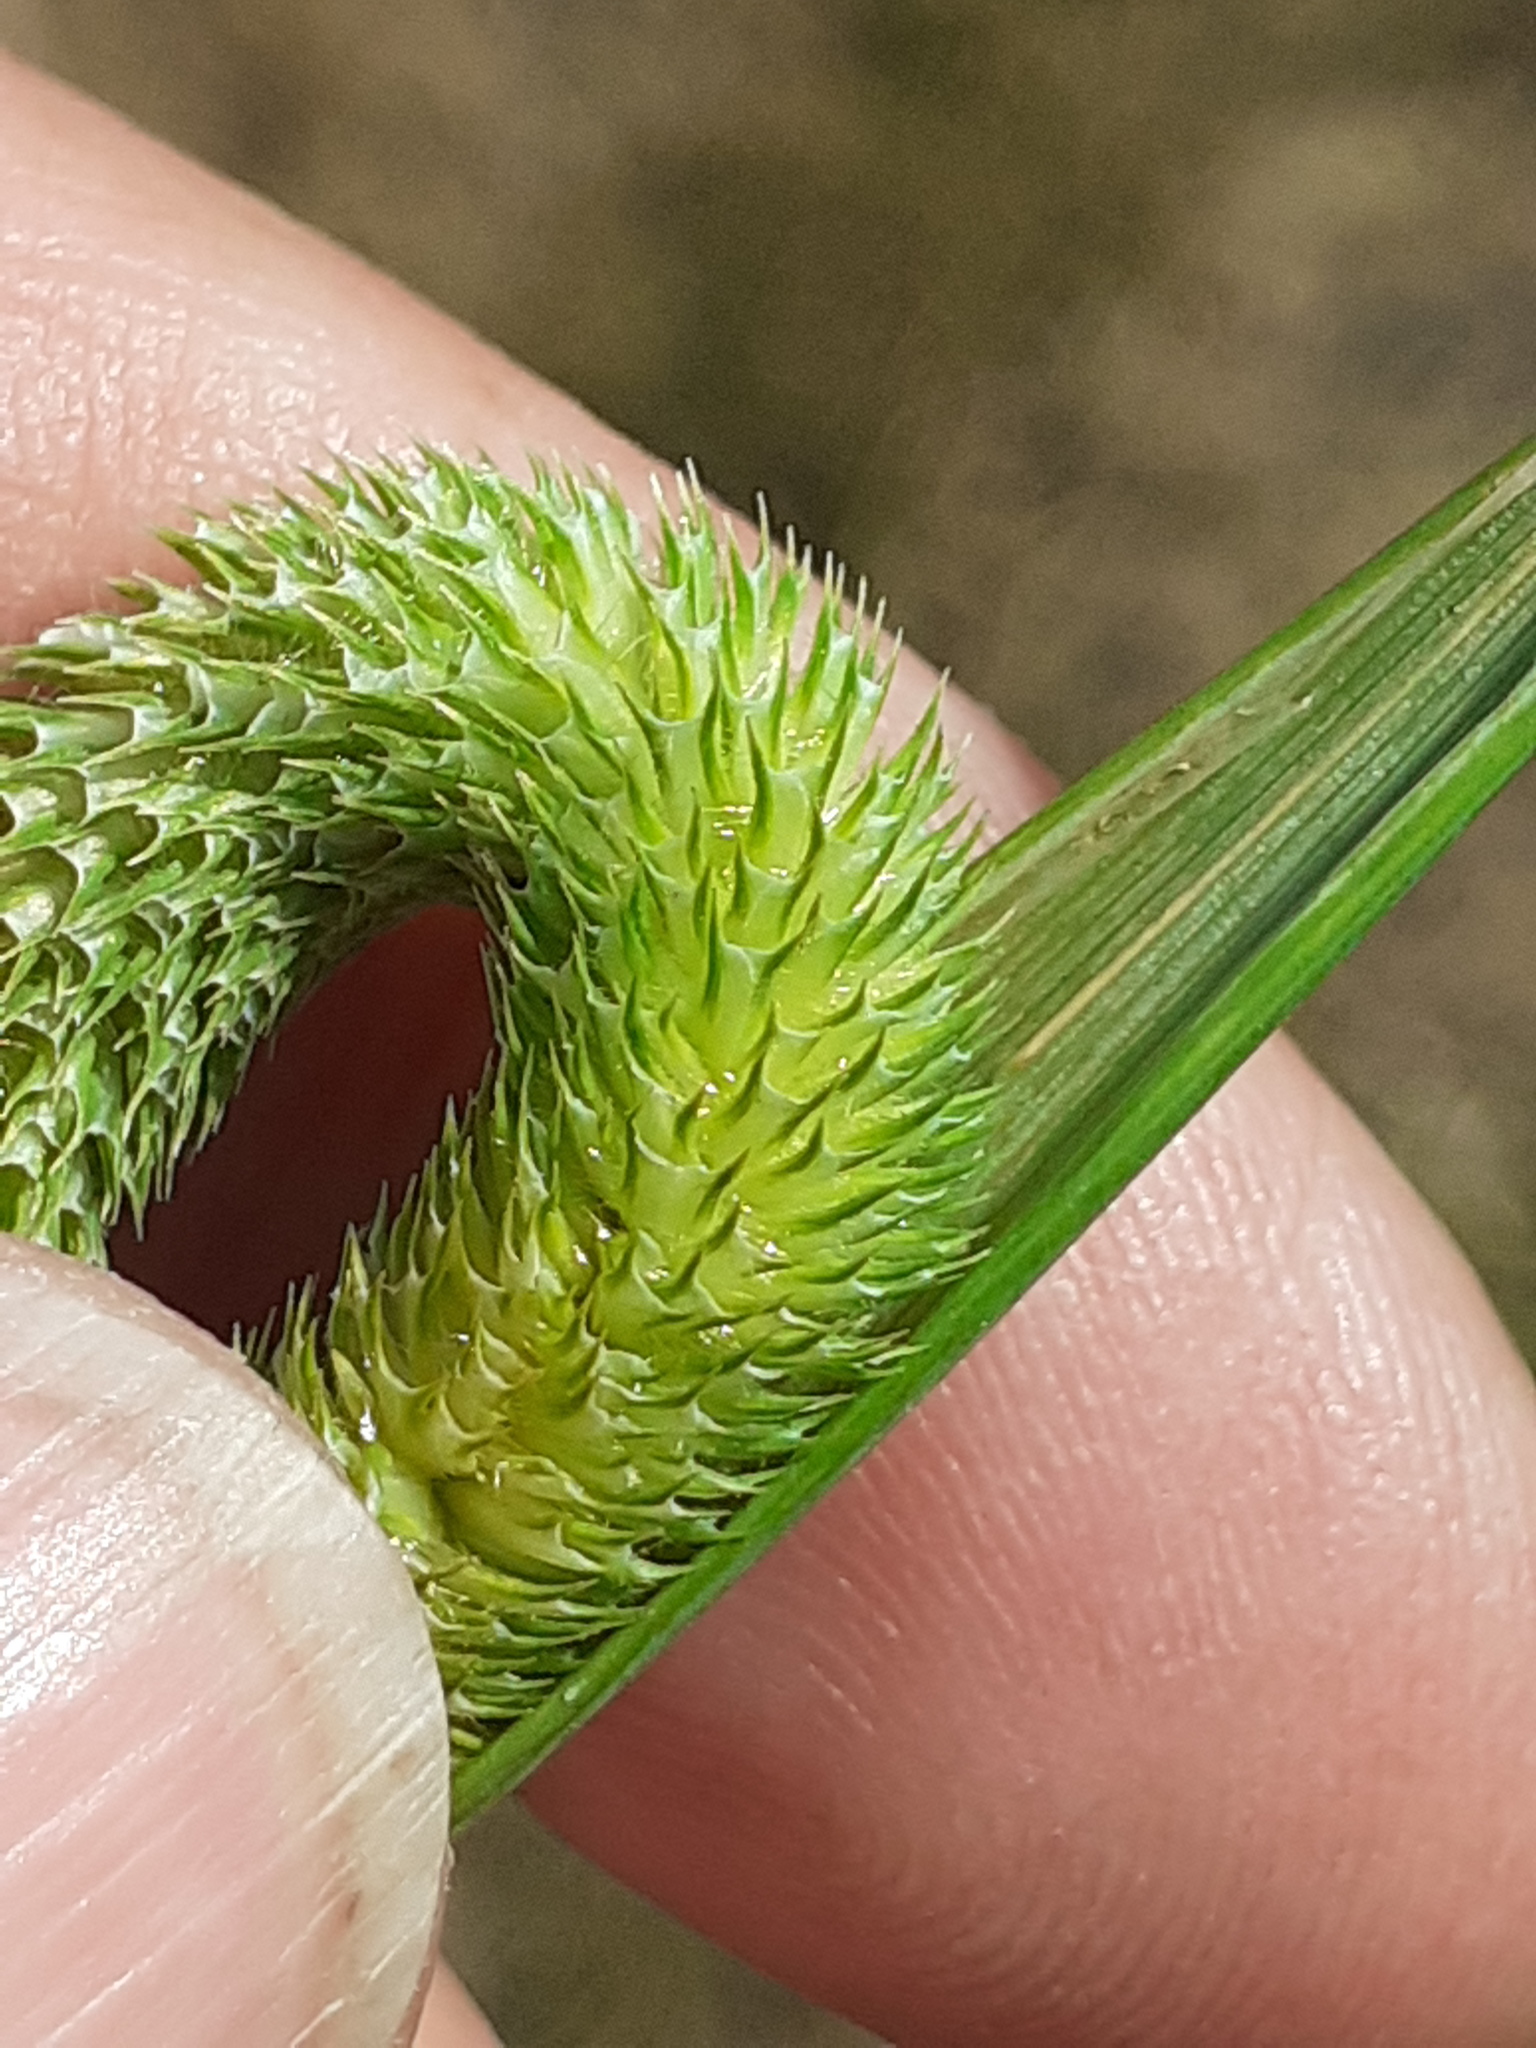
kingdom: Plantae
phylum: Tracheophyta
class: Liliopsida
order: Poales
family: Poaceae
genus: Phleum
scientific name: Phleum pratense
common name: Timothy grass
